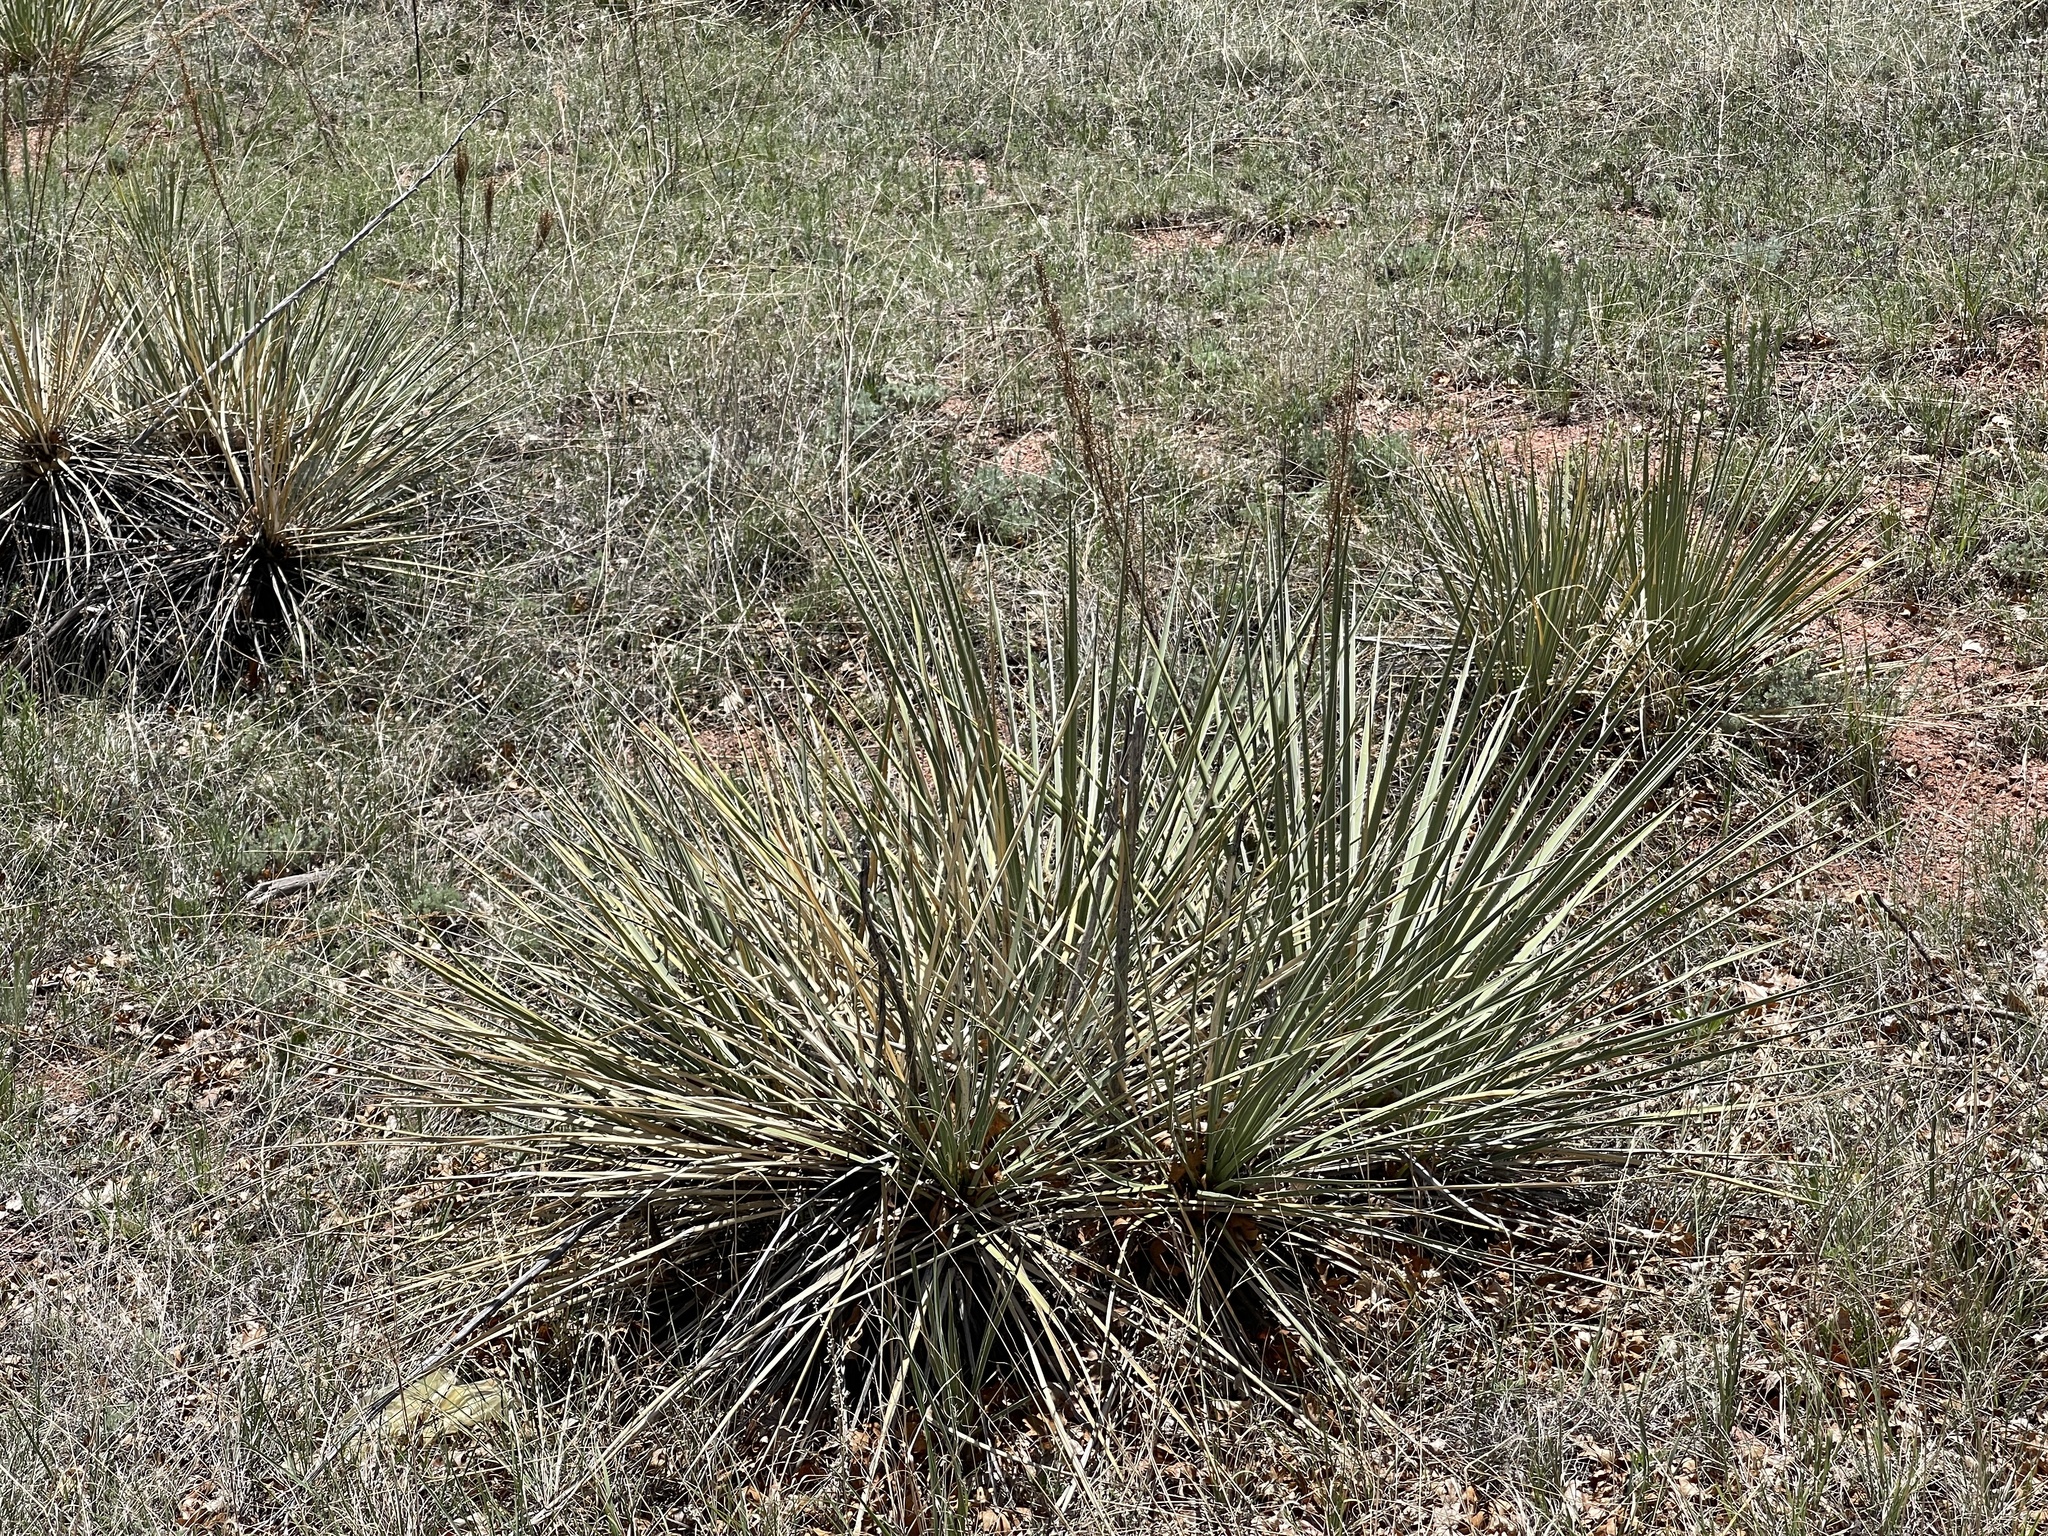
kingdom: Plantae
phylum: Tracheophyta
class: Liliopsida
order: Asparagales
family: Asparagaceae
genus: Yucca
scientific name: Yucca glauca
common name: Great plains yucca
